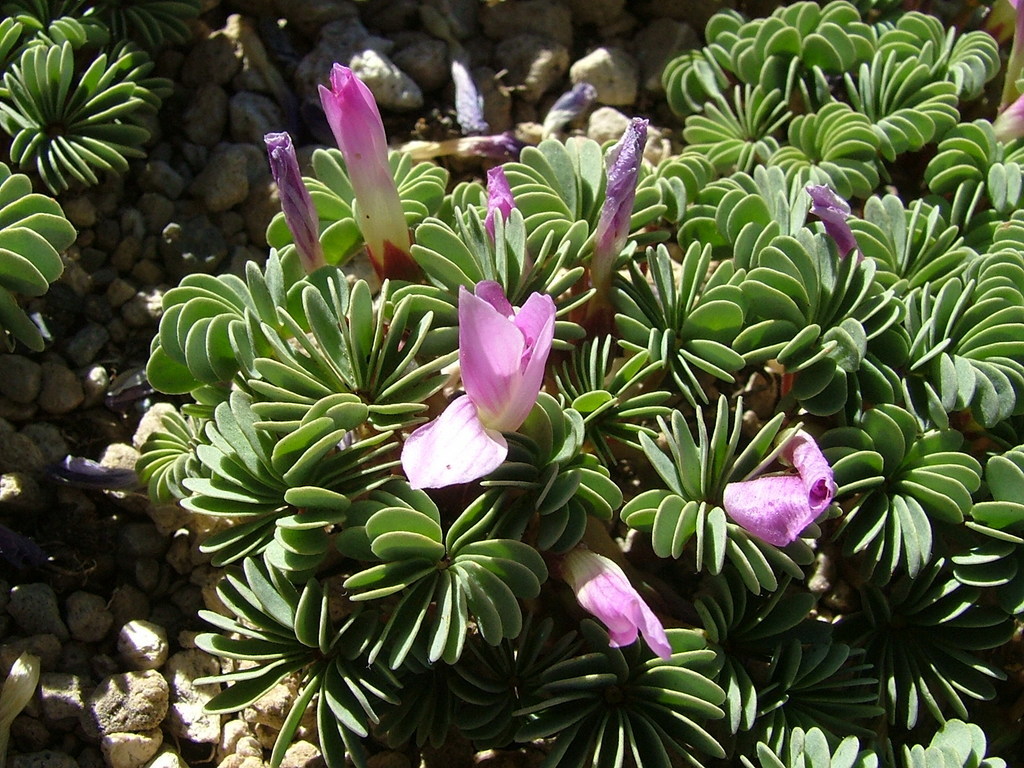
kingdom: Plantae
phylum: Tracheophyta
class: Magnoliopsida
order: Oxalidales
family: Oxalidaceae
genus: Oxalis
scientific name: Oxalis adenophylla
